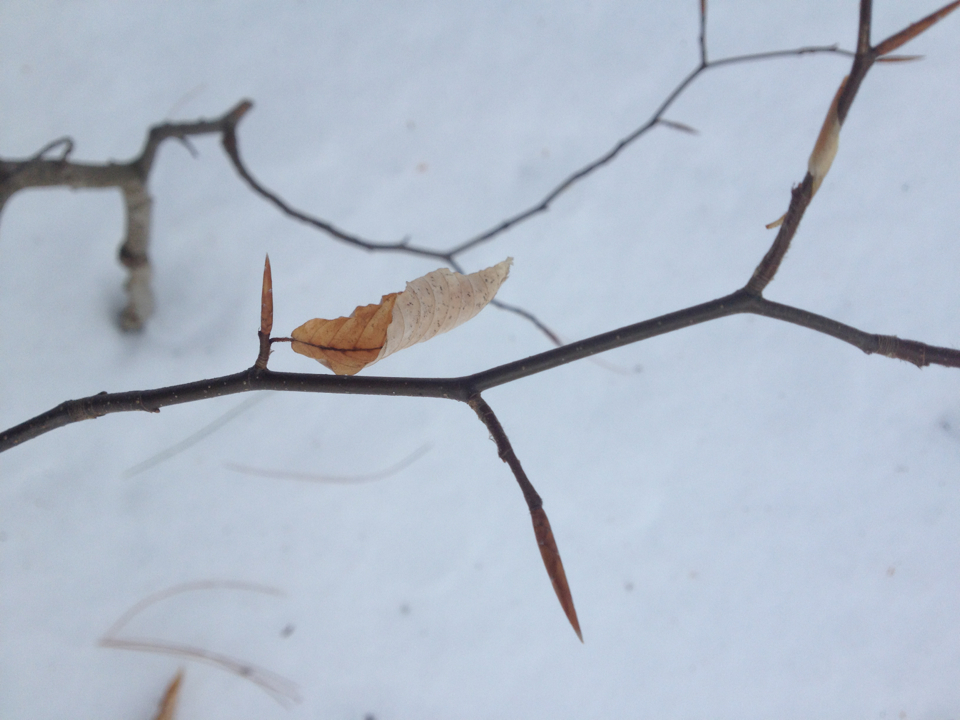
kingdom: Plantae
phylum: Tracheophyta
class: Magnoliopsida
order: Fagales
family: Fagaceae
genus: Fagus
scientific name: Fagus grandifolia
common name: American beech
